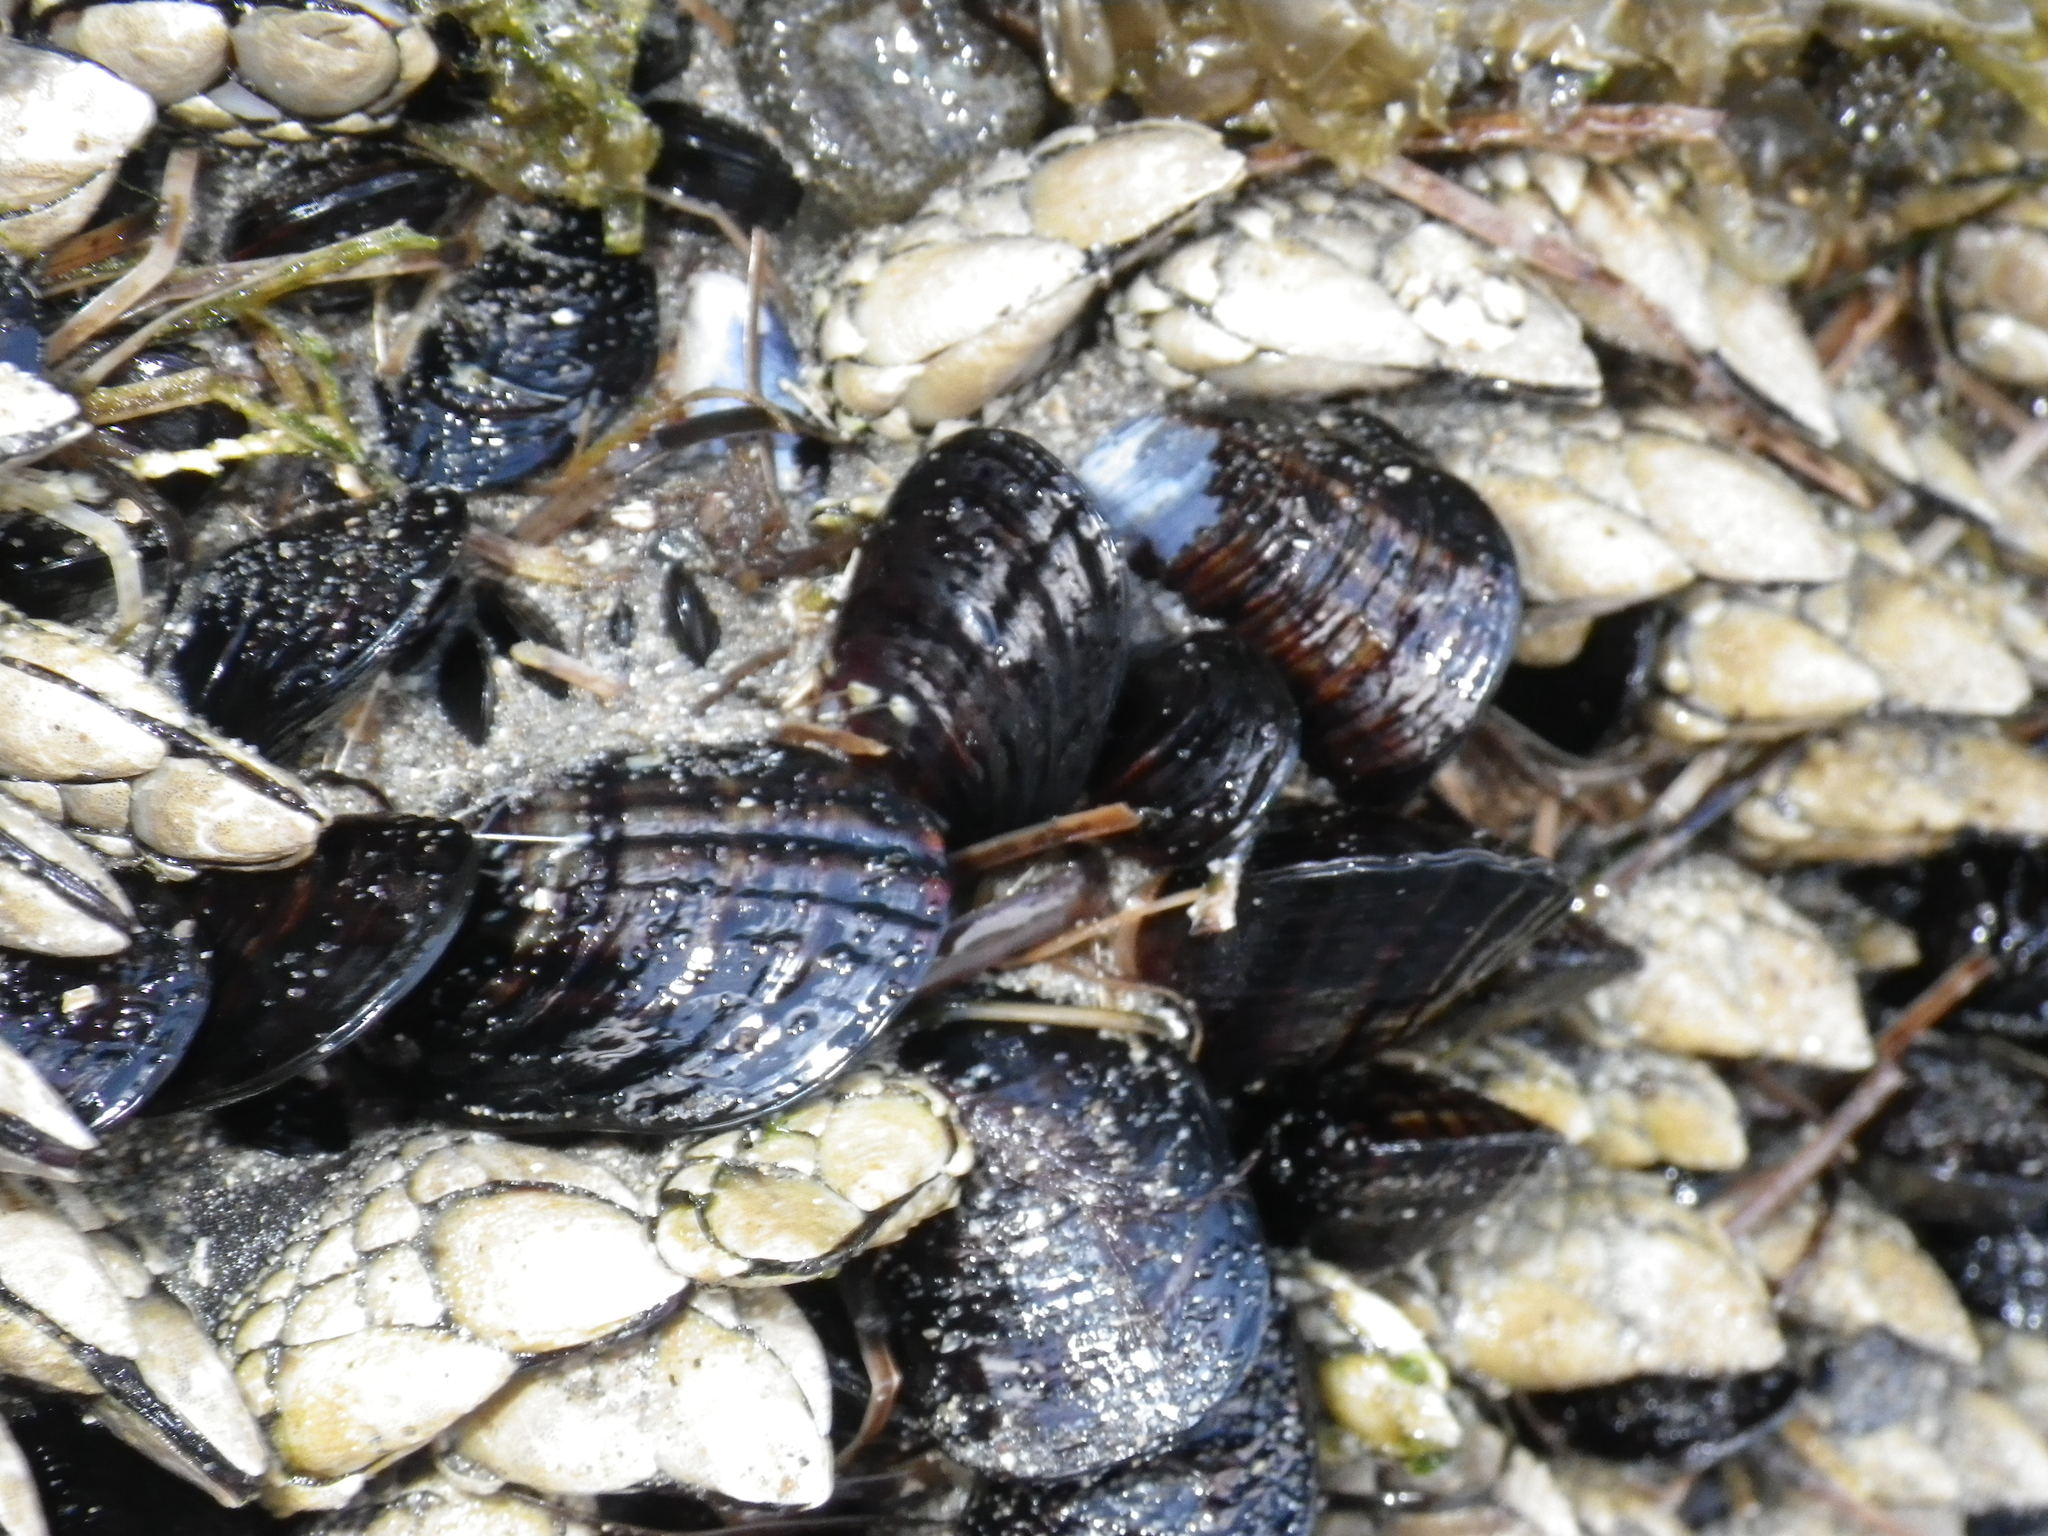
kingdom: Animalia
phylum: Mollusca
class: Bivalvia
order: Mytilida
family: Mytilidae
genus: Mytilus
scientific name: Mytilus californianus
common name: California mussel
